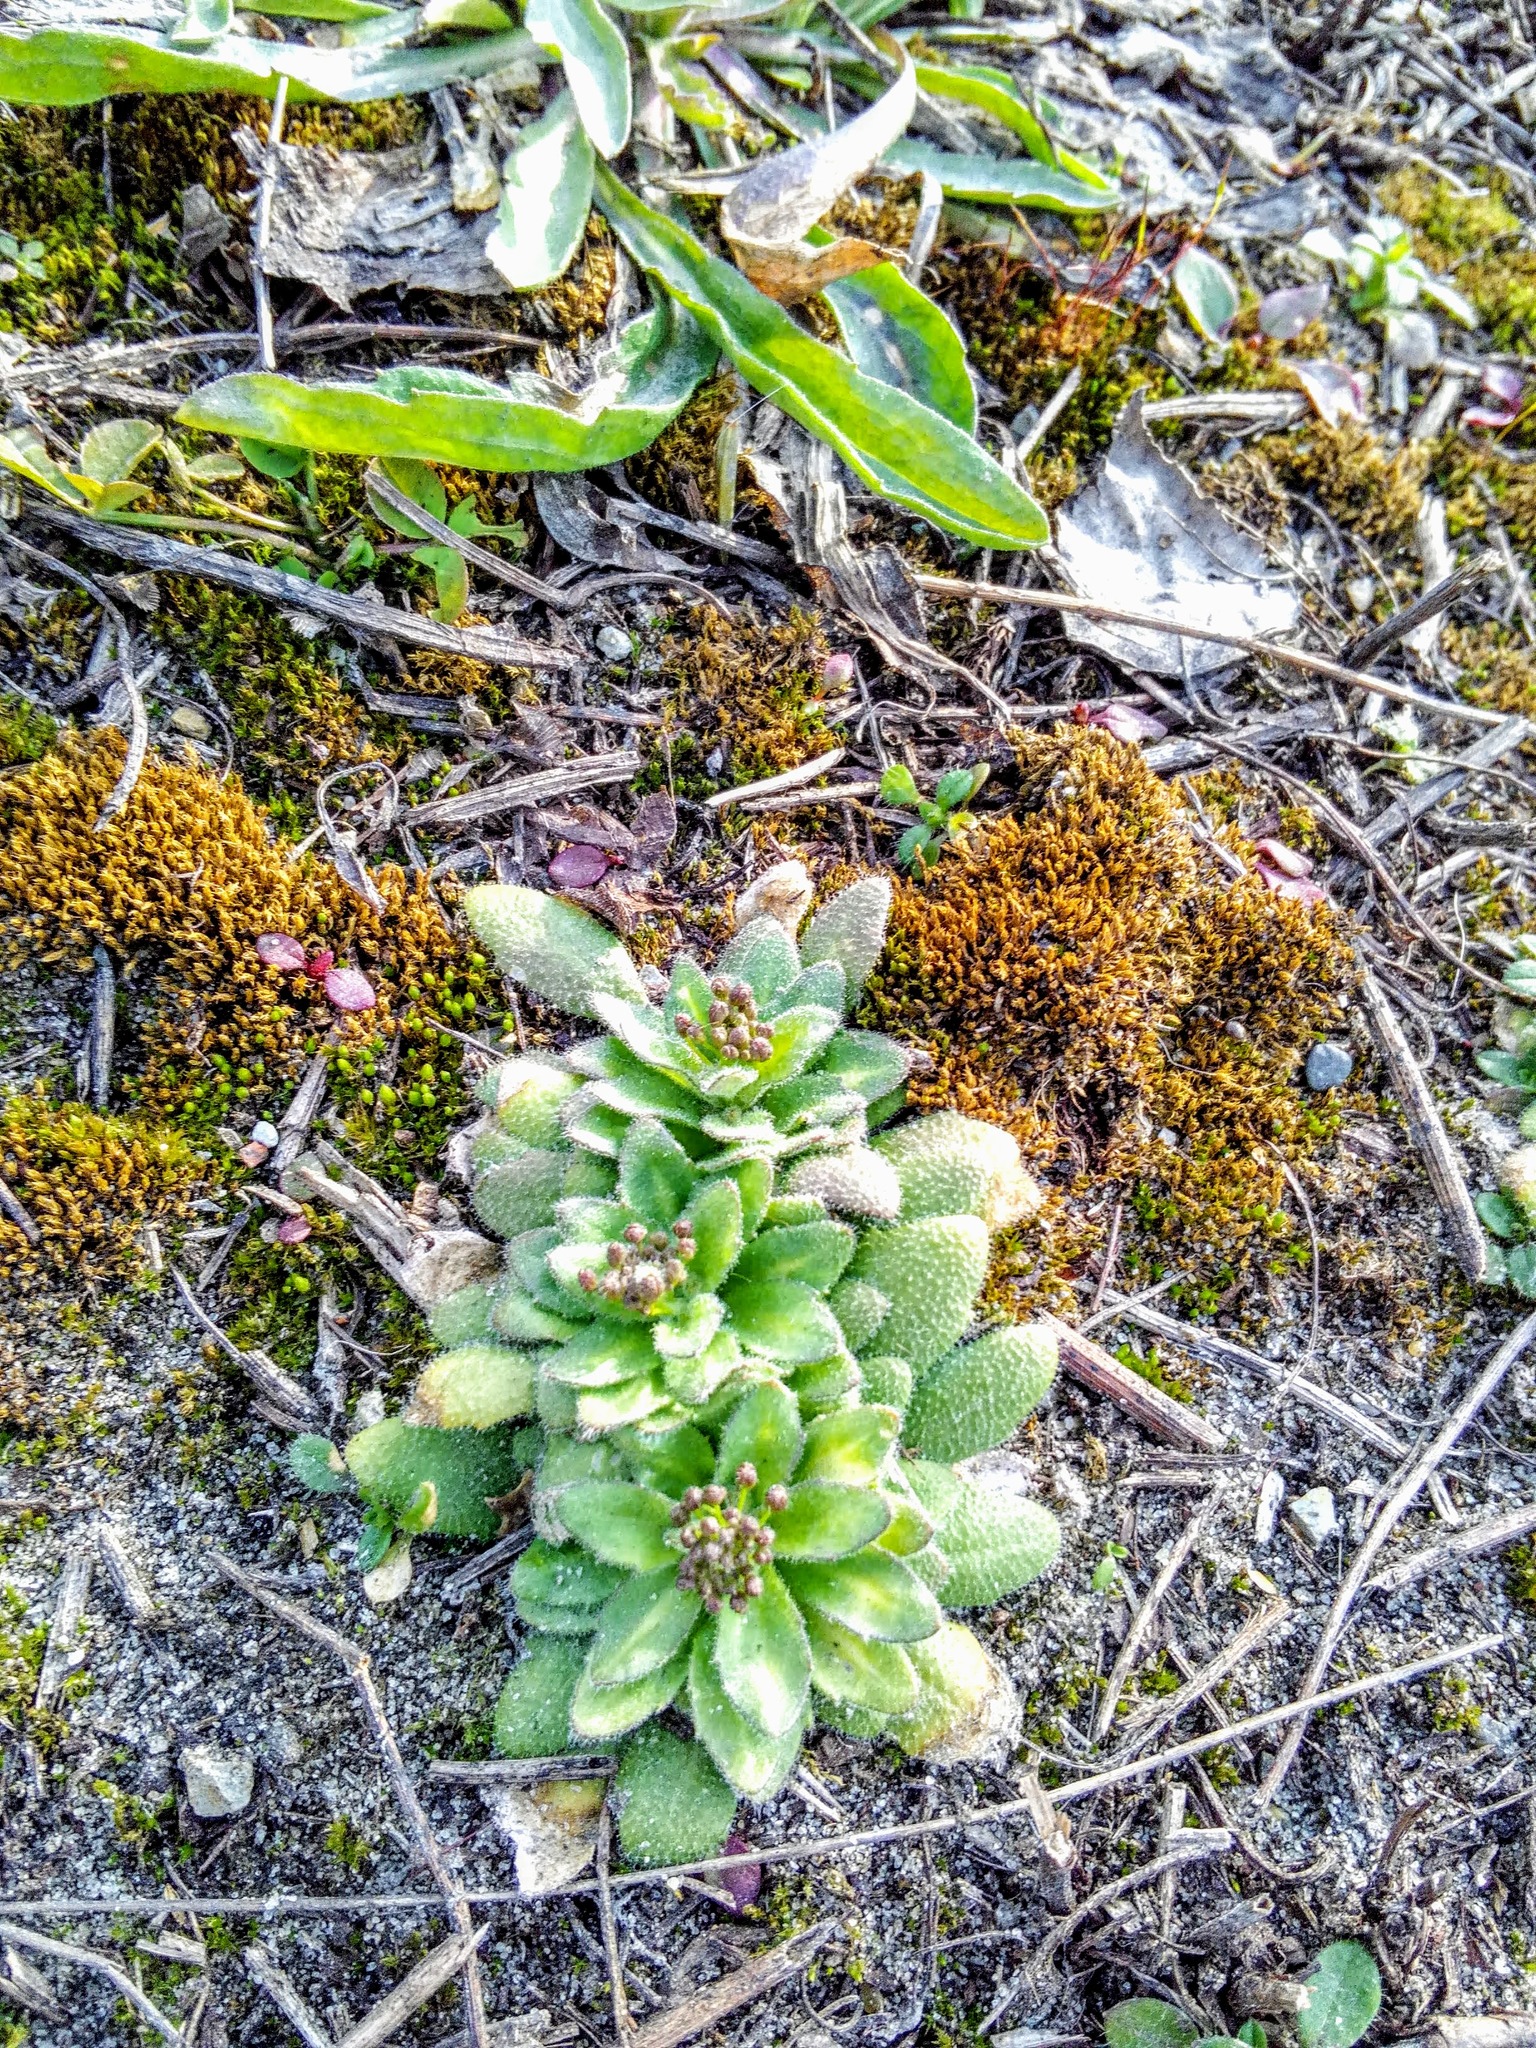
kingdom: Plantae
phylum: Tracheophyta
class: Magnoliopsida
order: Brassicales
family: Brassicaceae
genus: Draba
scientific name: Draba nemorosa
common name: Wood whitlow-grass
